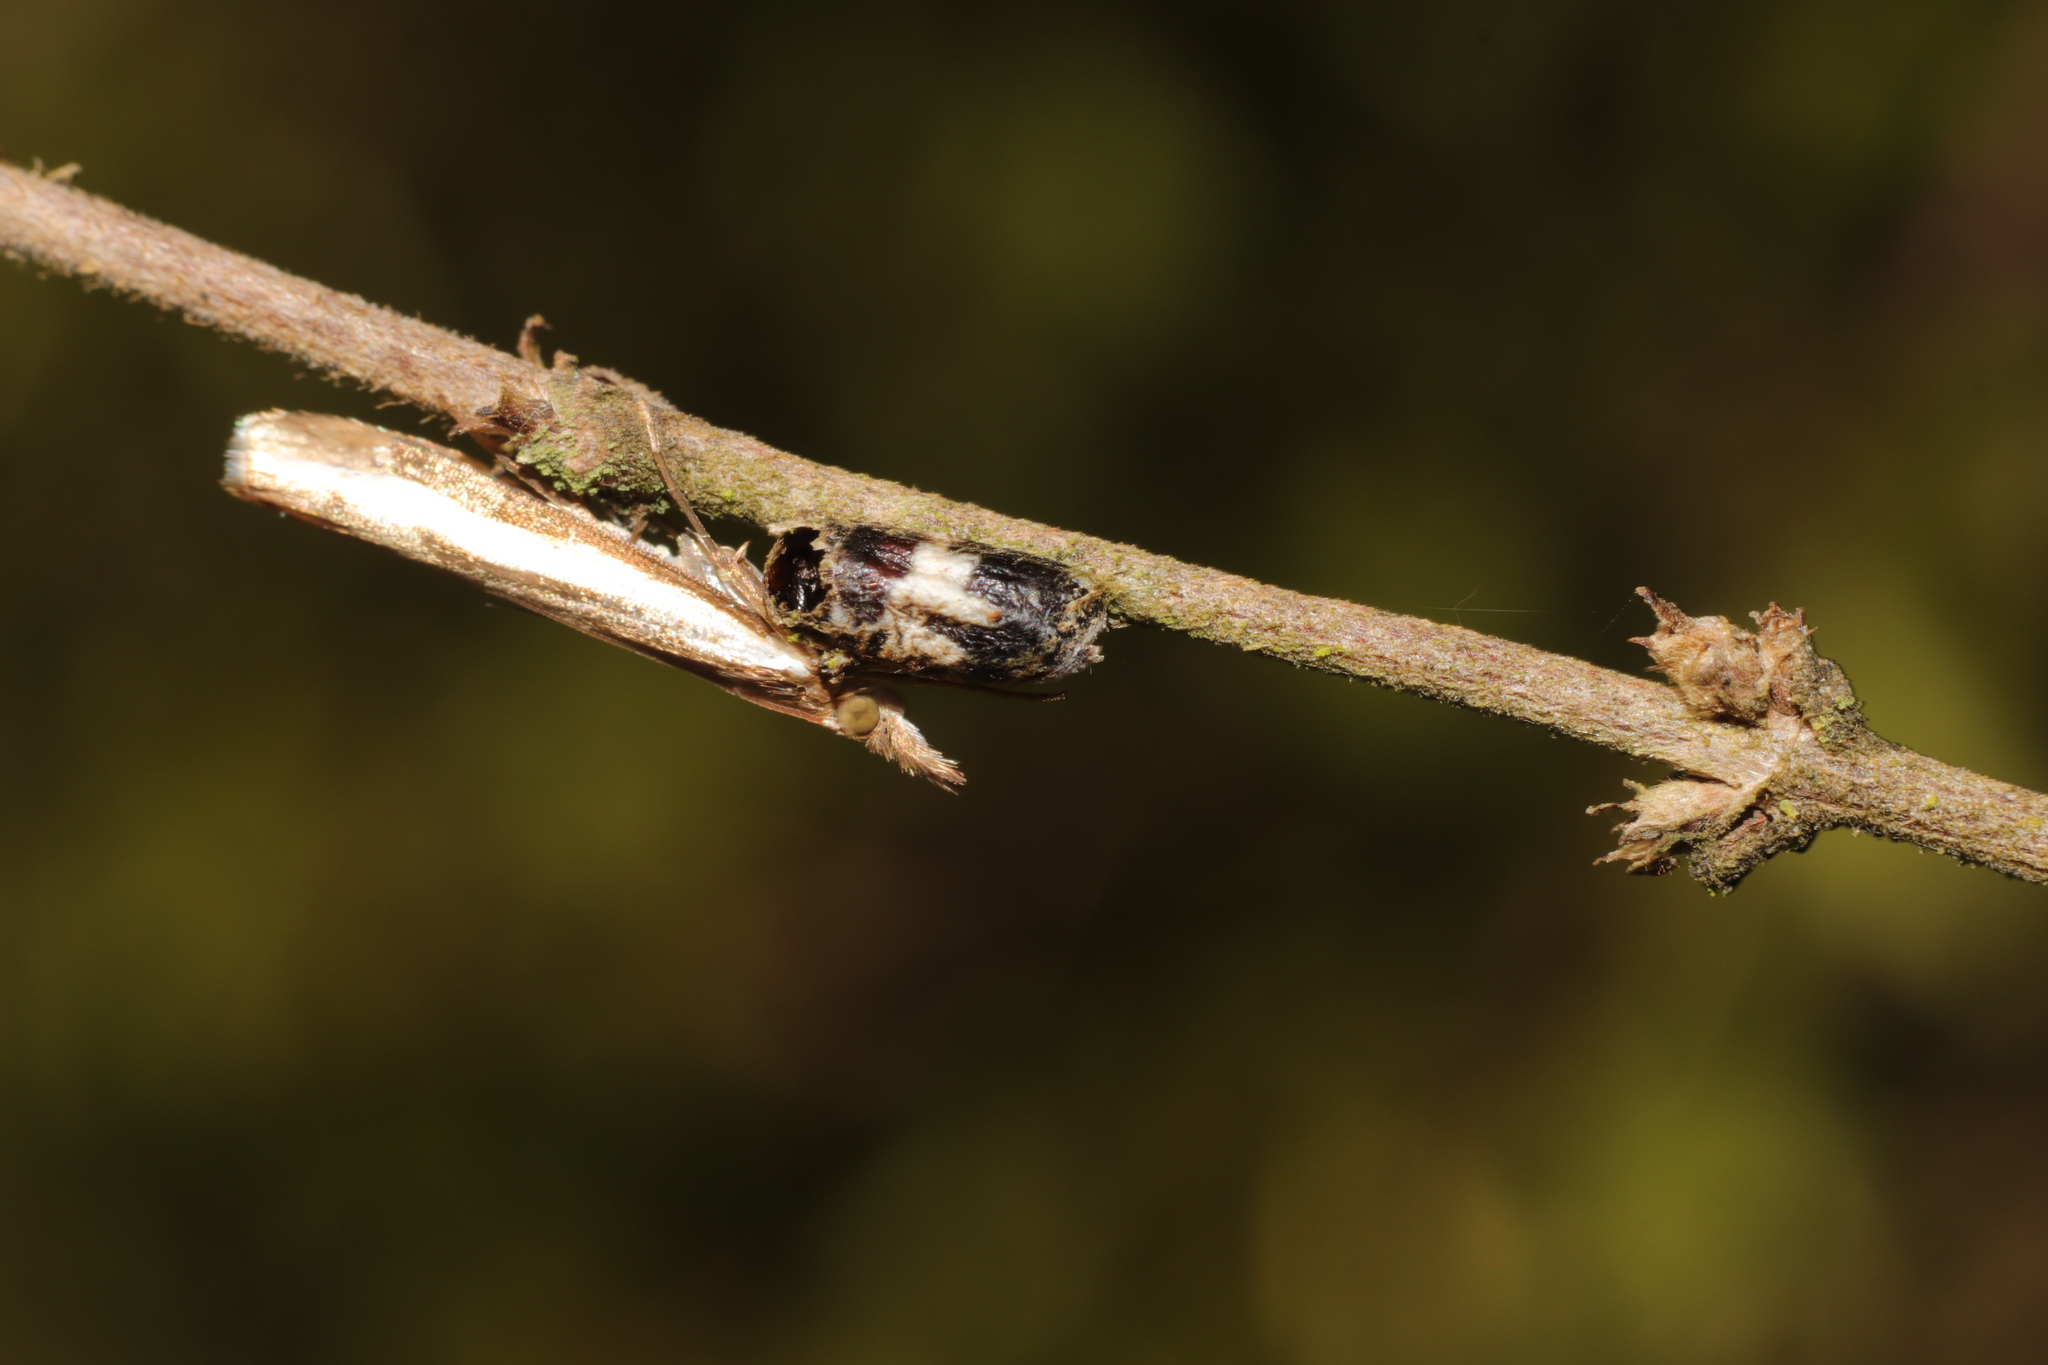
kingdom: Animalia
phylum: Arthropoda
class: Insecta
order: Lepidoptera
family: Crambidae
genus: Orocrambus
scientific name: Orocrambus flexuosellus
